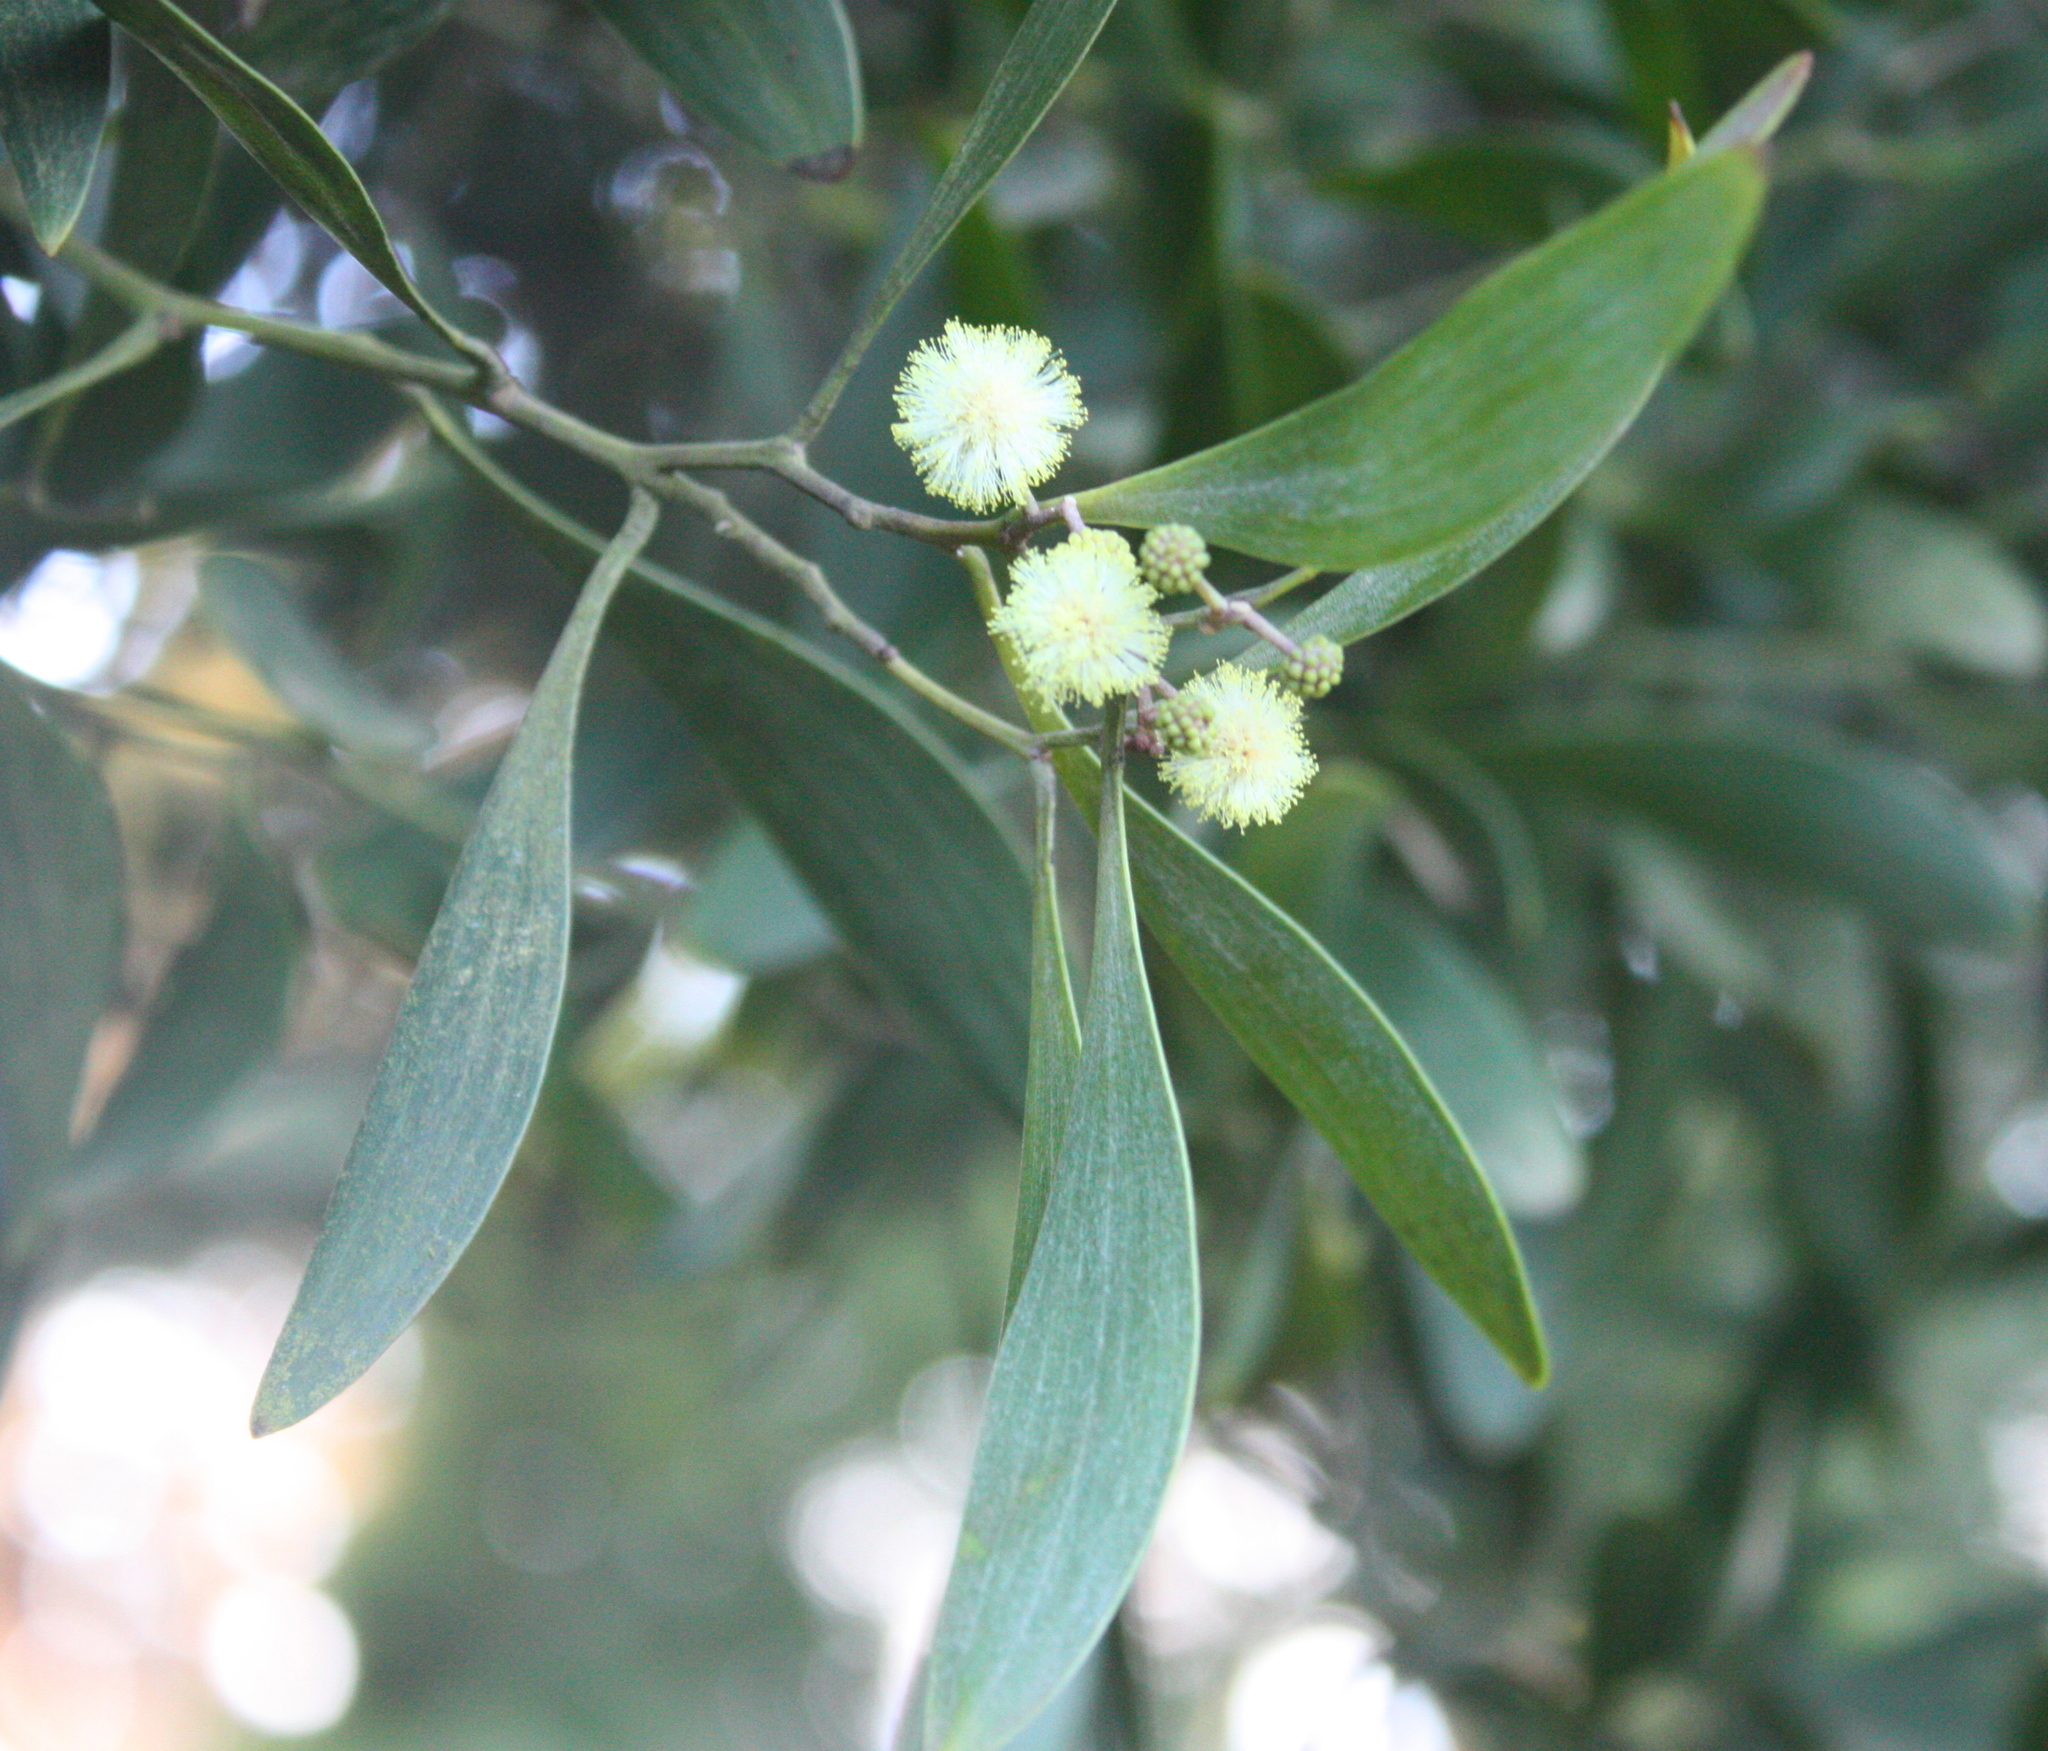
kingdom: Plantae
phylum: Tracheophyta
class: Magnoliopsida
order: Fabales
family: Fabaceae
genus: Acacia
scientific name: Acacia melanoxylon
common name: Blackwood
